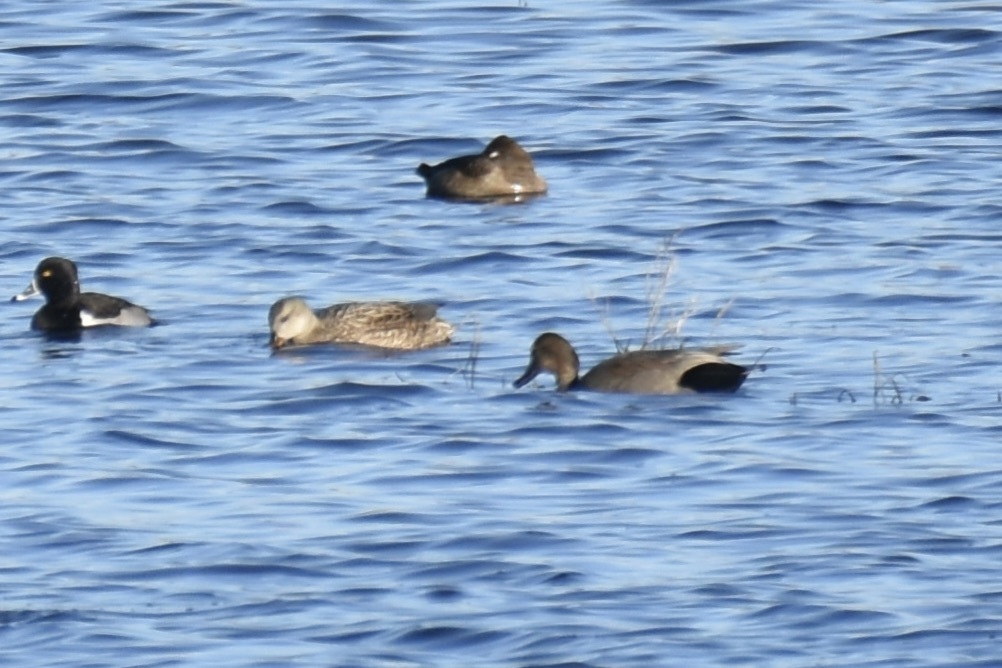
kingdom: Animalia
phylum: Chordata
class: Aves
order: Anseriformes
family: Anatidae
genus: Mareca
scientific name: Mareca strepera
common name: Gadwall
